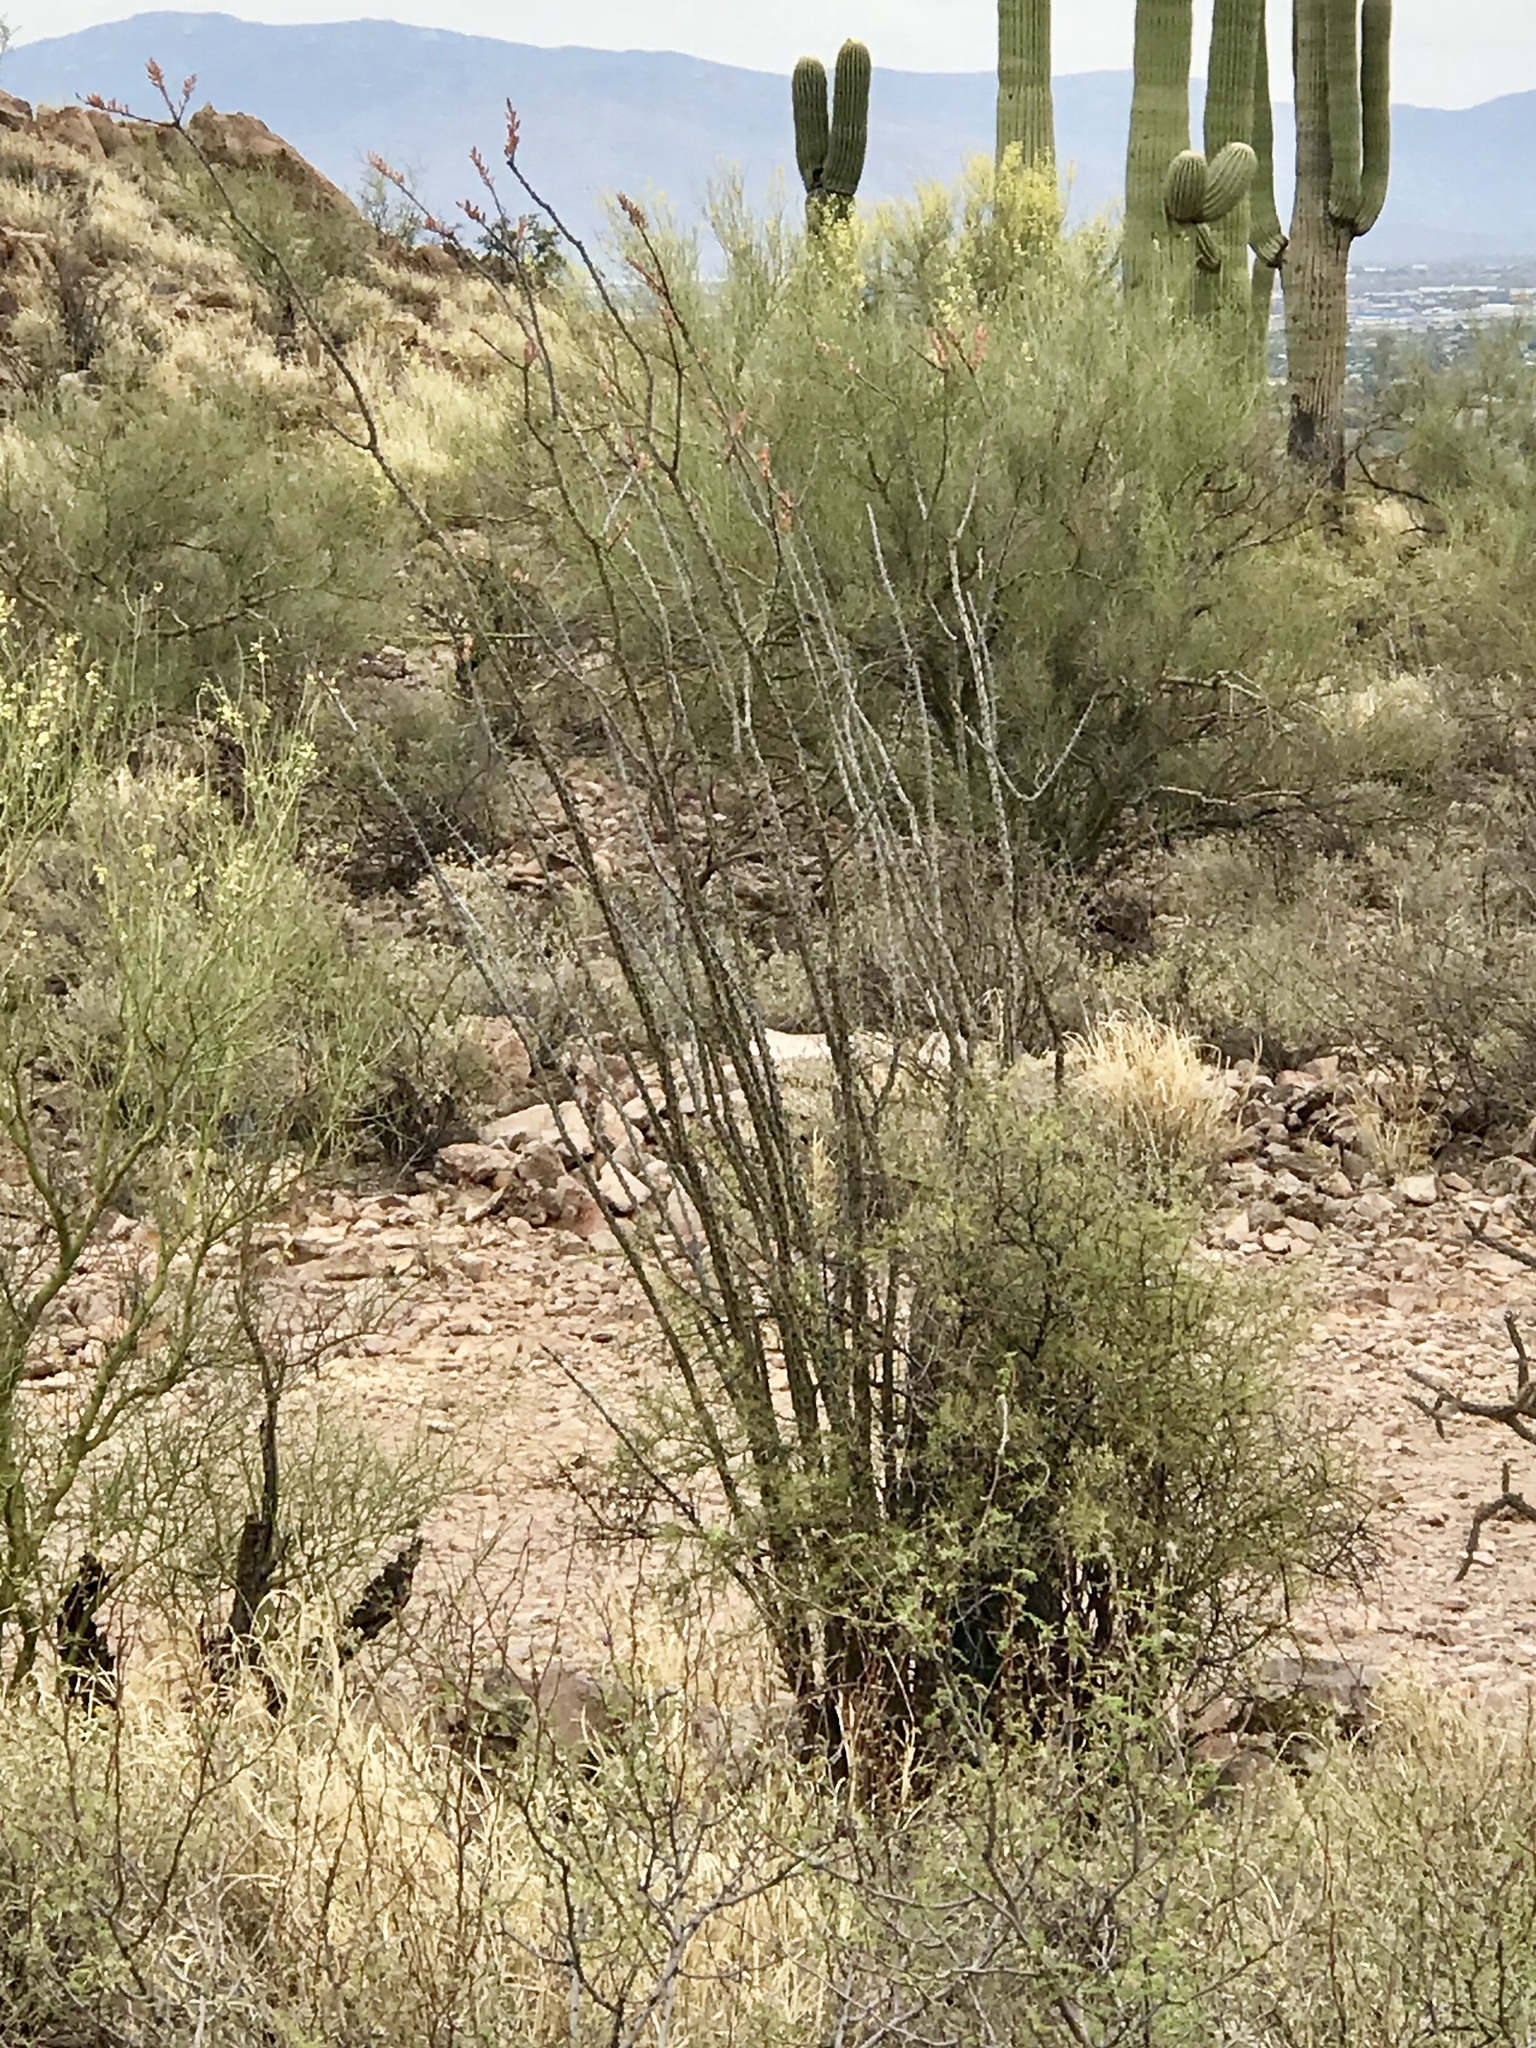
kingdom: Plantae
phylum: Tracheophyta
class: Magnoliopsida
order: Ericales
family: Fouquieriaceae
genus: Fouquieria
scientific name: Fouquieria splendens
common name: Vine-cactus
